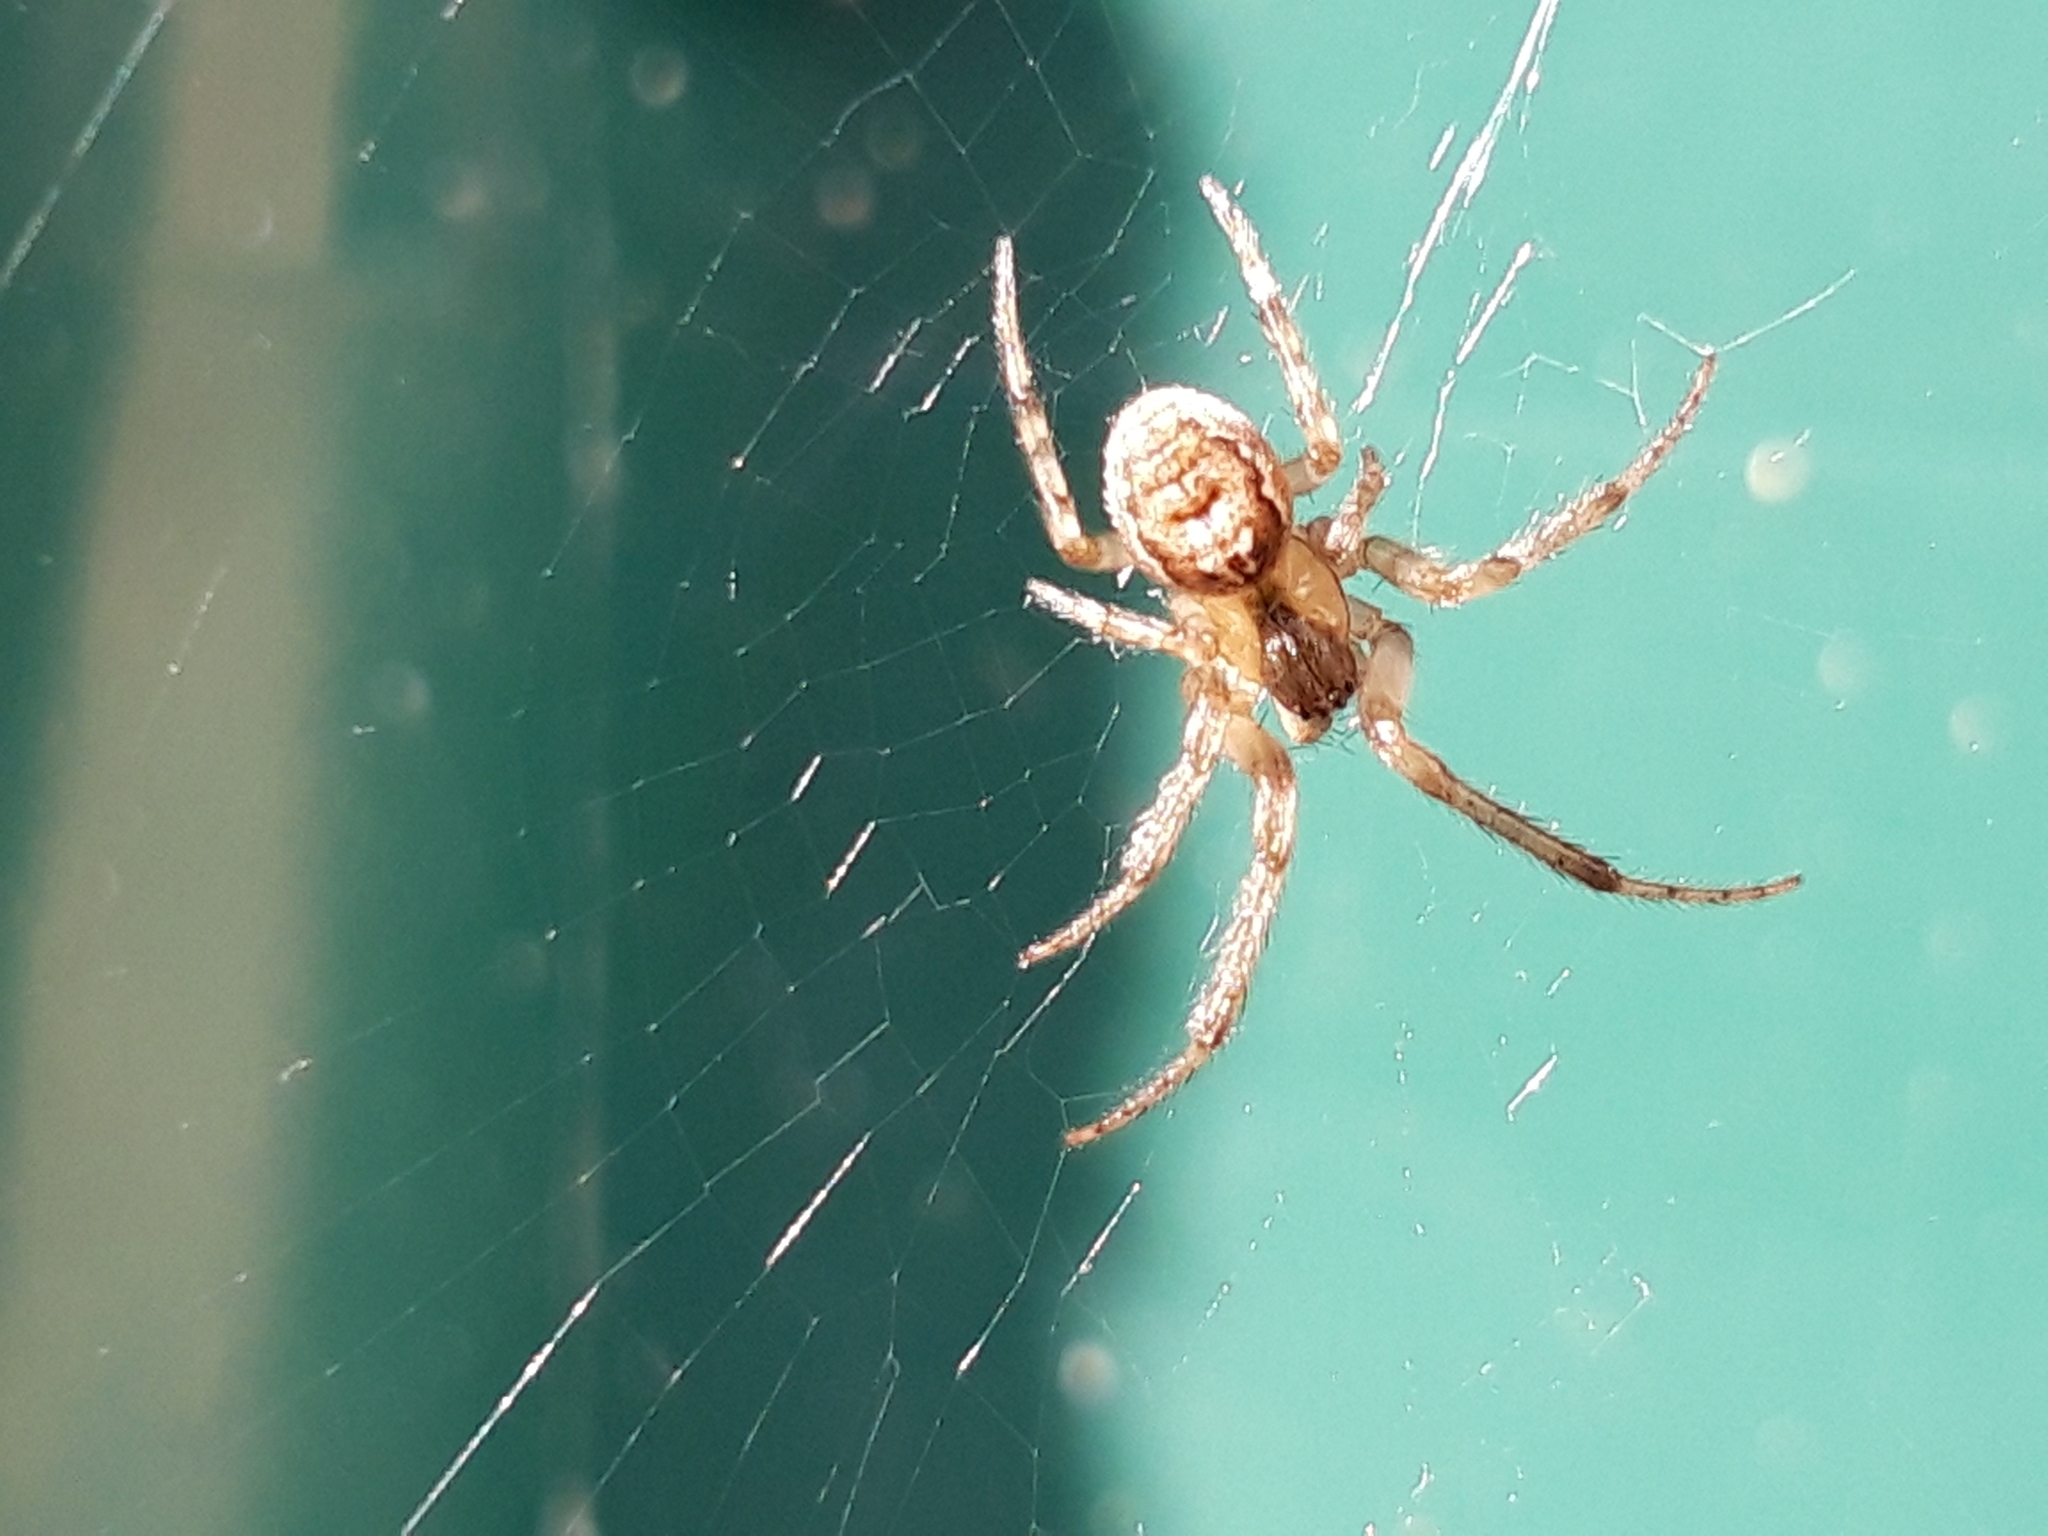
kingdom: Animalia
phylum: Arthropoda
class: Arachnida
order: Araneae
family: Araneidae
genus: Zygiella
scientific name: Zygiella x-notata
